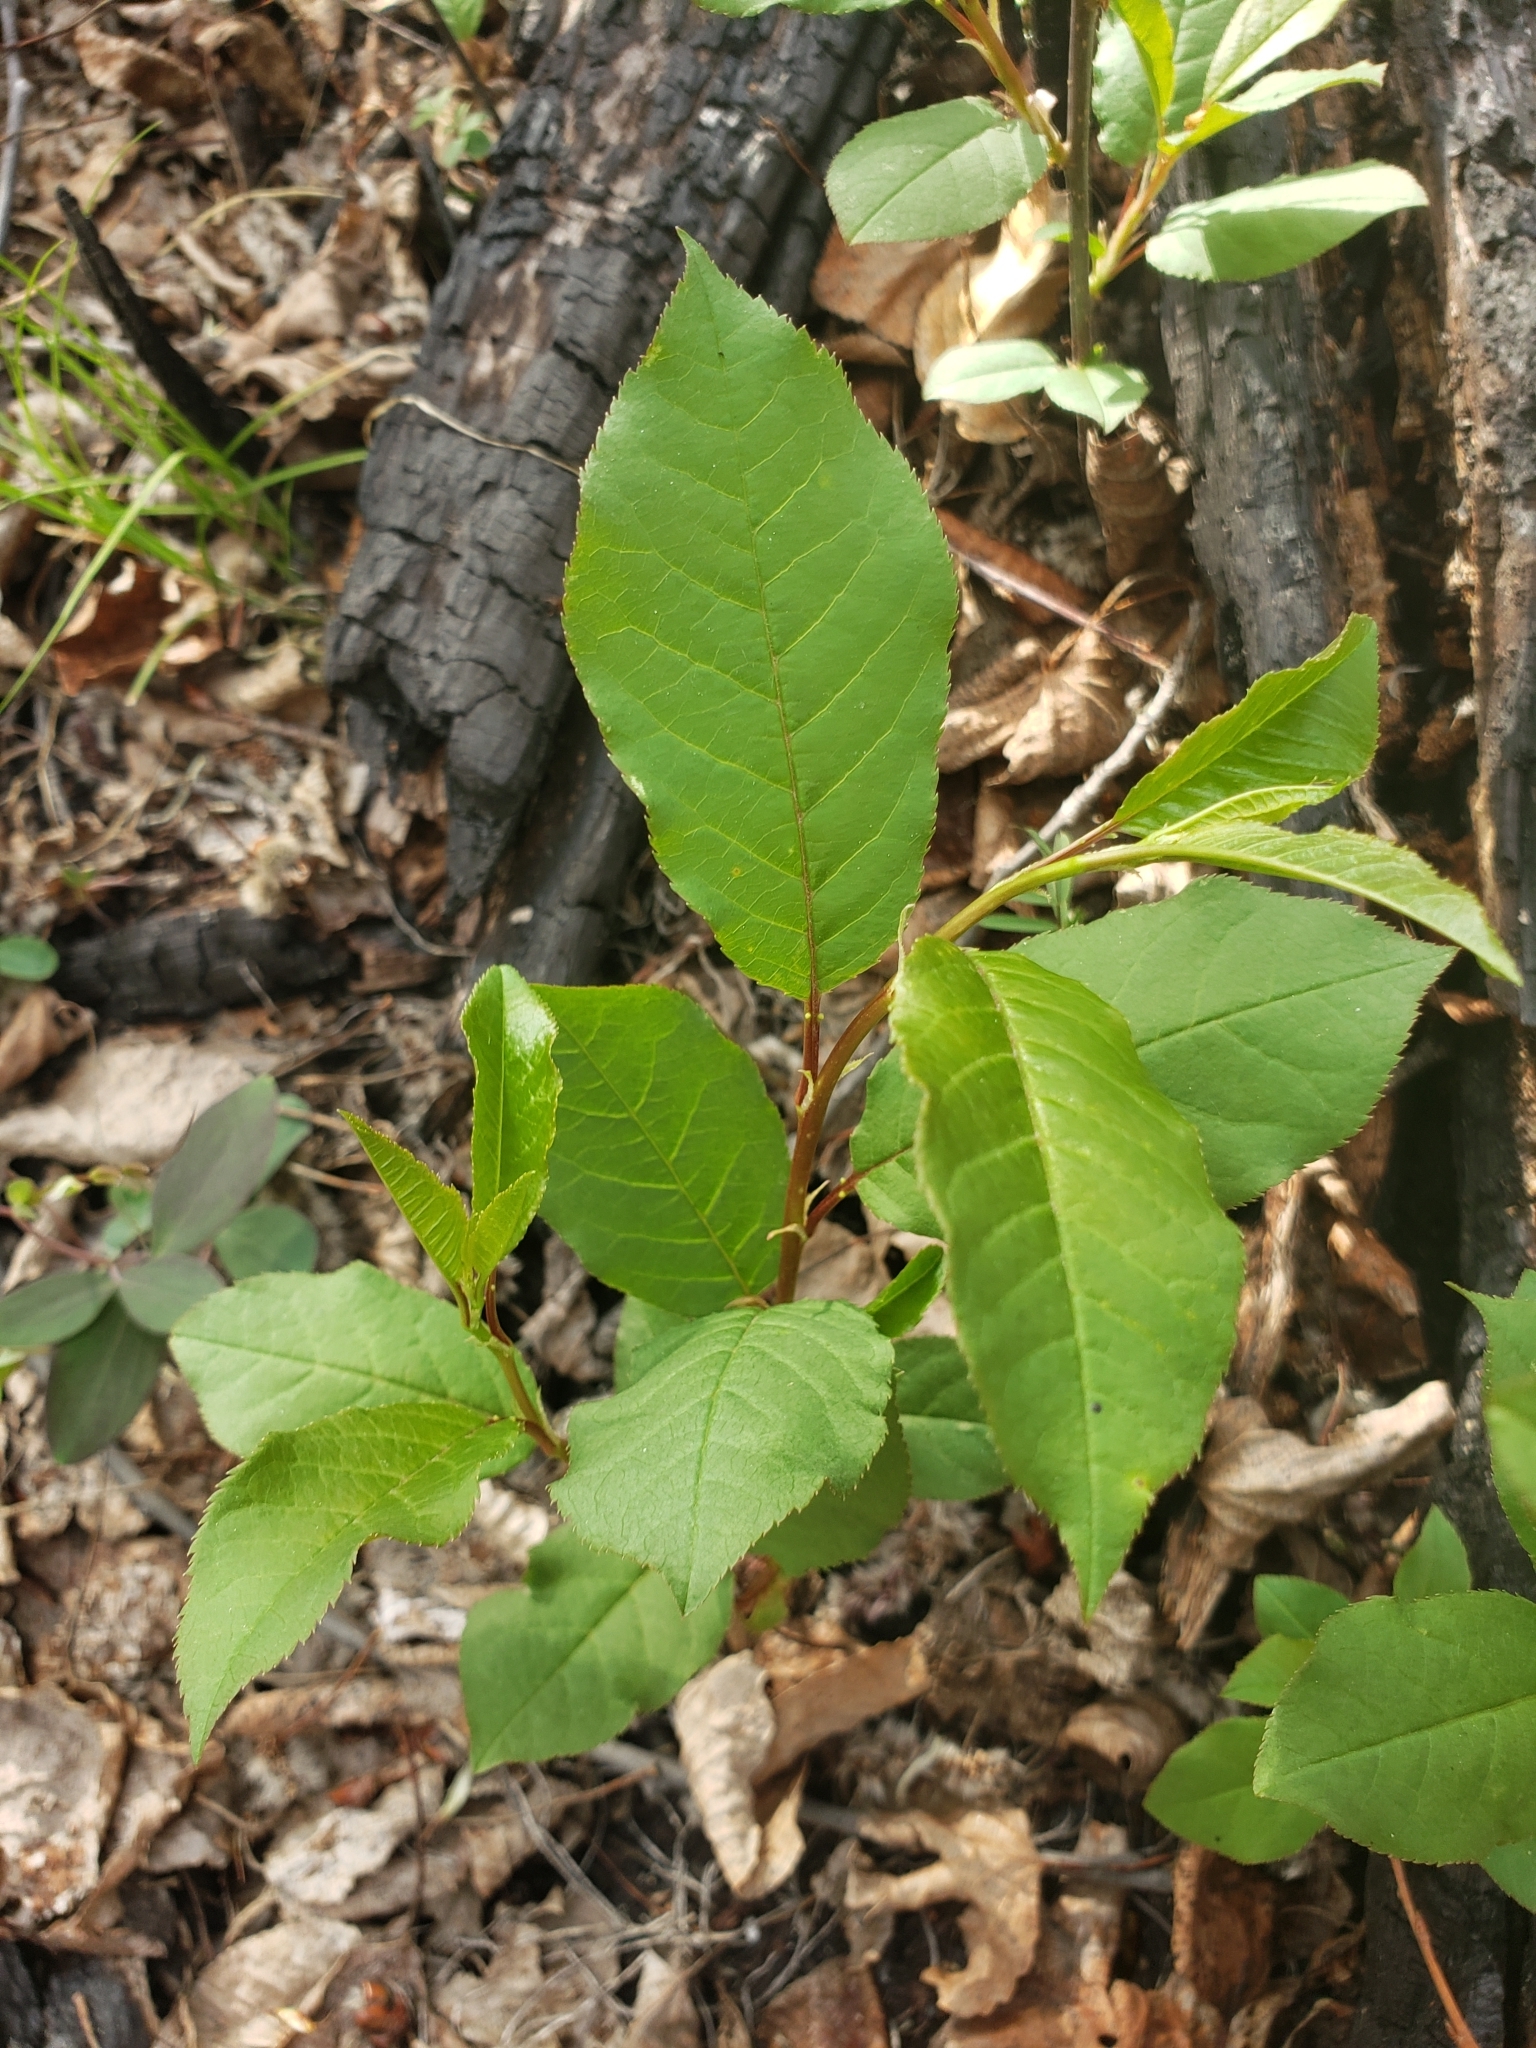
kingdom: Plantae
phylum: Tracheophyta
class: Magnoliopsida
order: Rosales
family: Rosaceae
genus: Prunus
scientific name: Prunus virginiana
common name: Chokecherry
